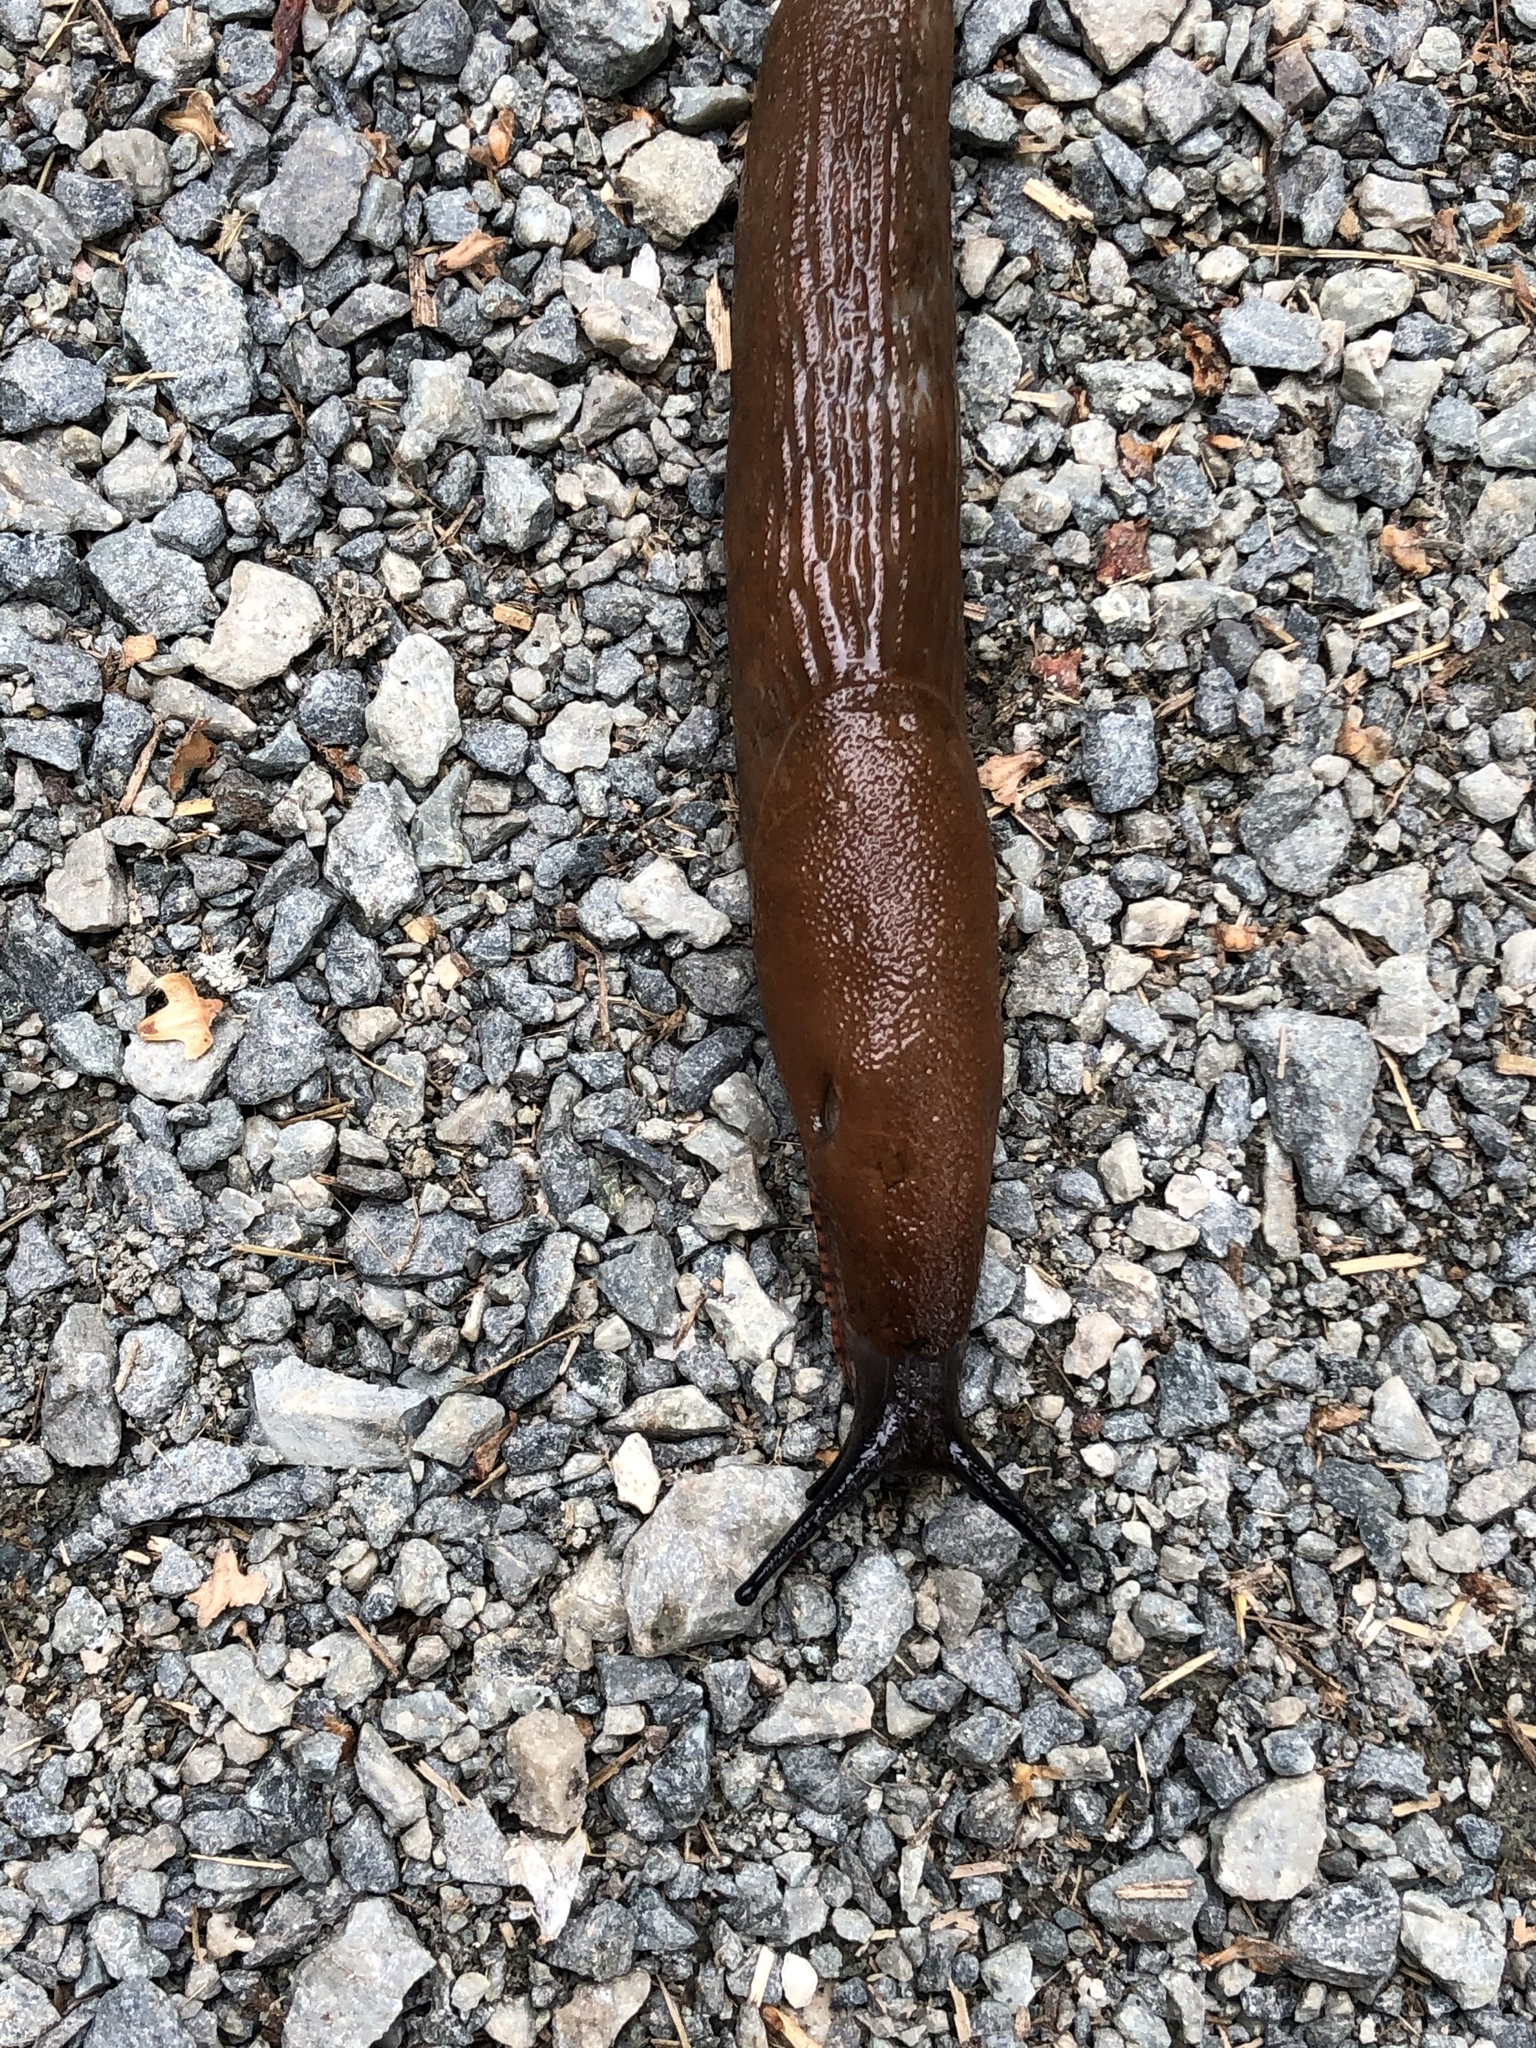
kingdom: Animalia
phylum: Mollusca
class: Gastropoda
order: Stylommatophora
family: Arionidae
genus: Arion
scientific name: Arion rufus
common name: Chocolate arion
